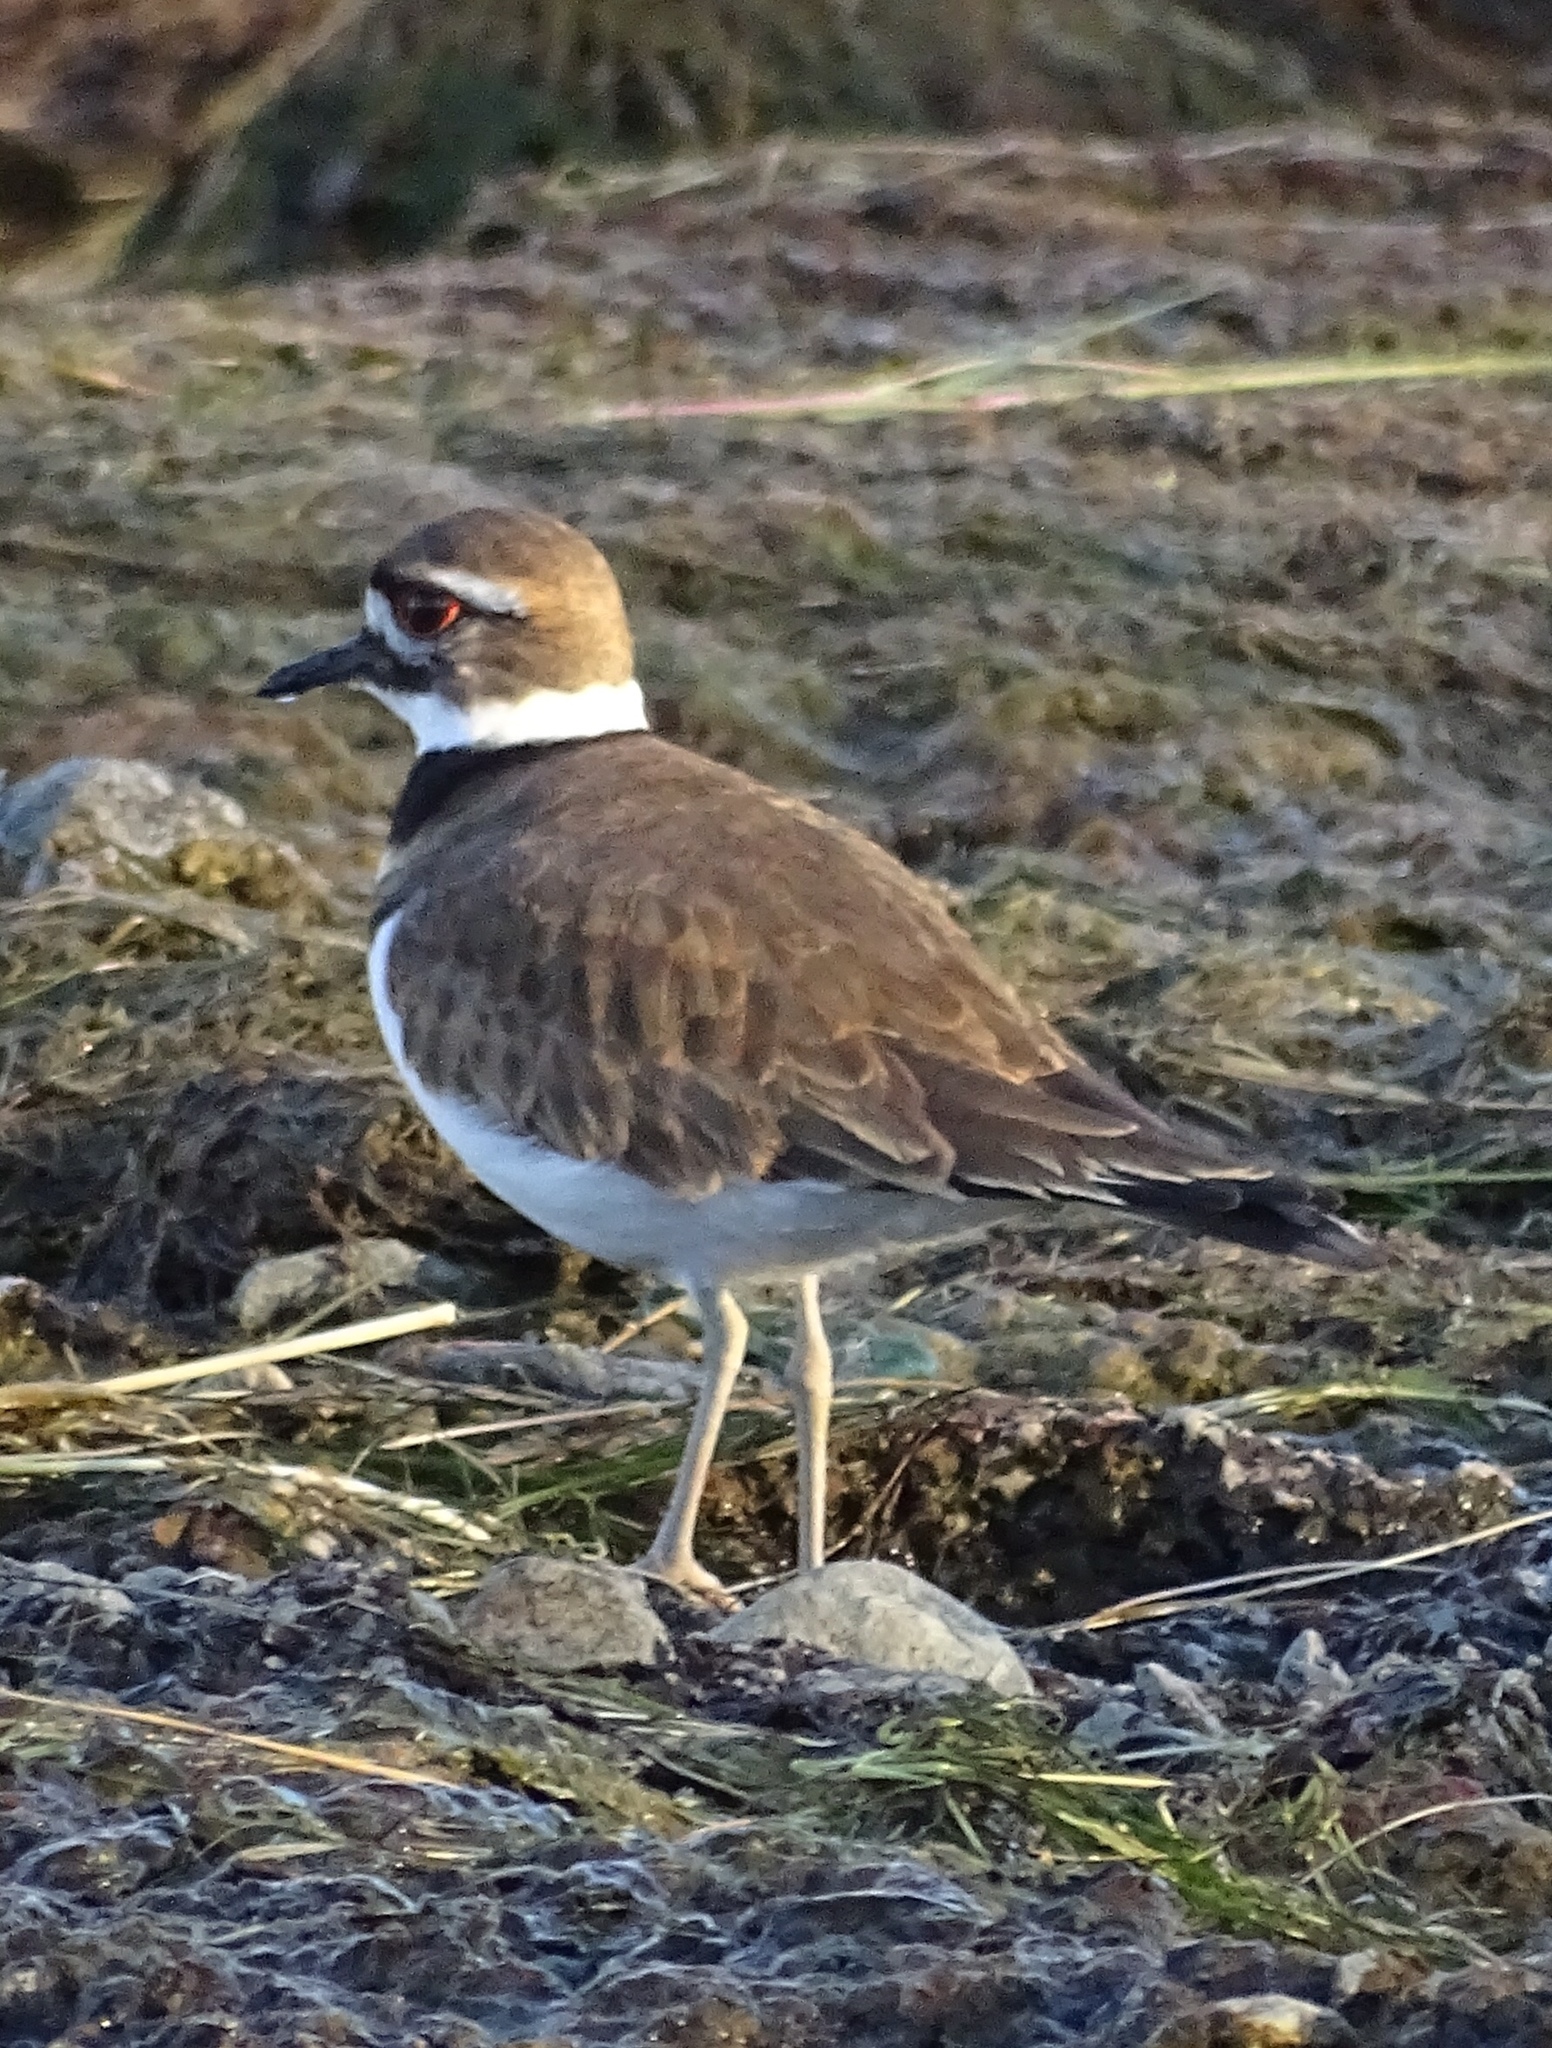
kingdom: Animalia
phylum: Chordata
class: Aves
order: Charadriiformes
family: Charadriidae
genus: Charadrius
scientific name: Charadrius vociferus
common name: Killdeer
